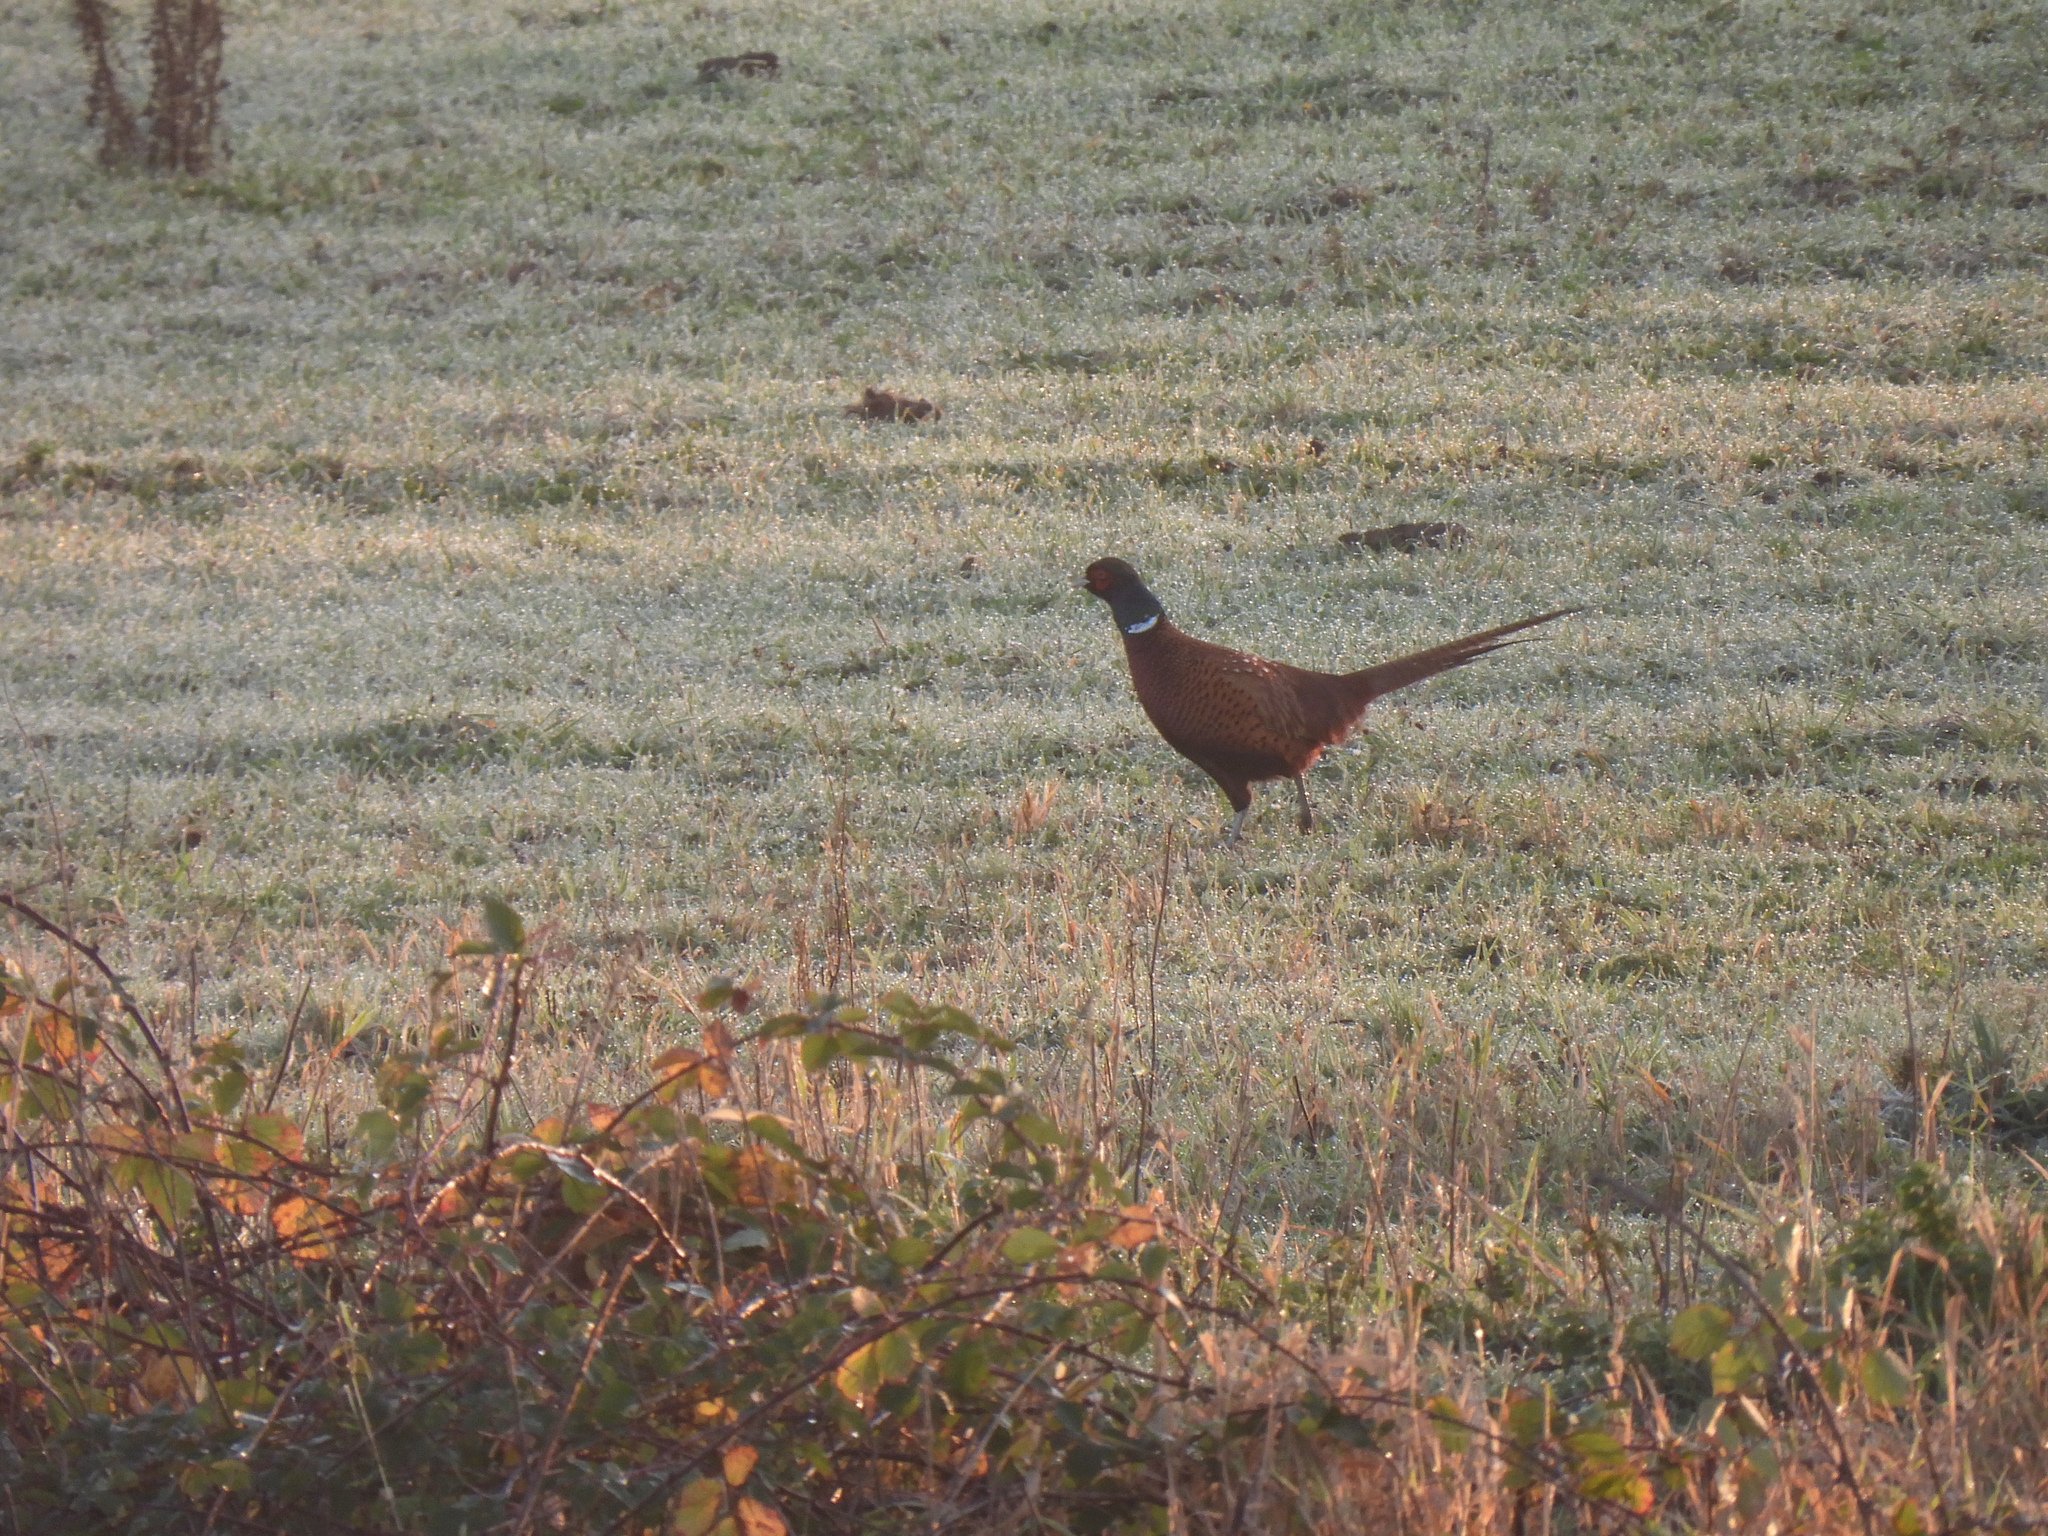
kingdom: Animalia
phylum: Chordata
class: Aves
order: Galliformes
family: Phasianidae
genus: Phasianus
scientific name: Phasianus colchicus
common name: Common pheasant
